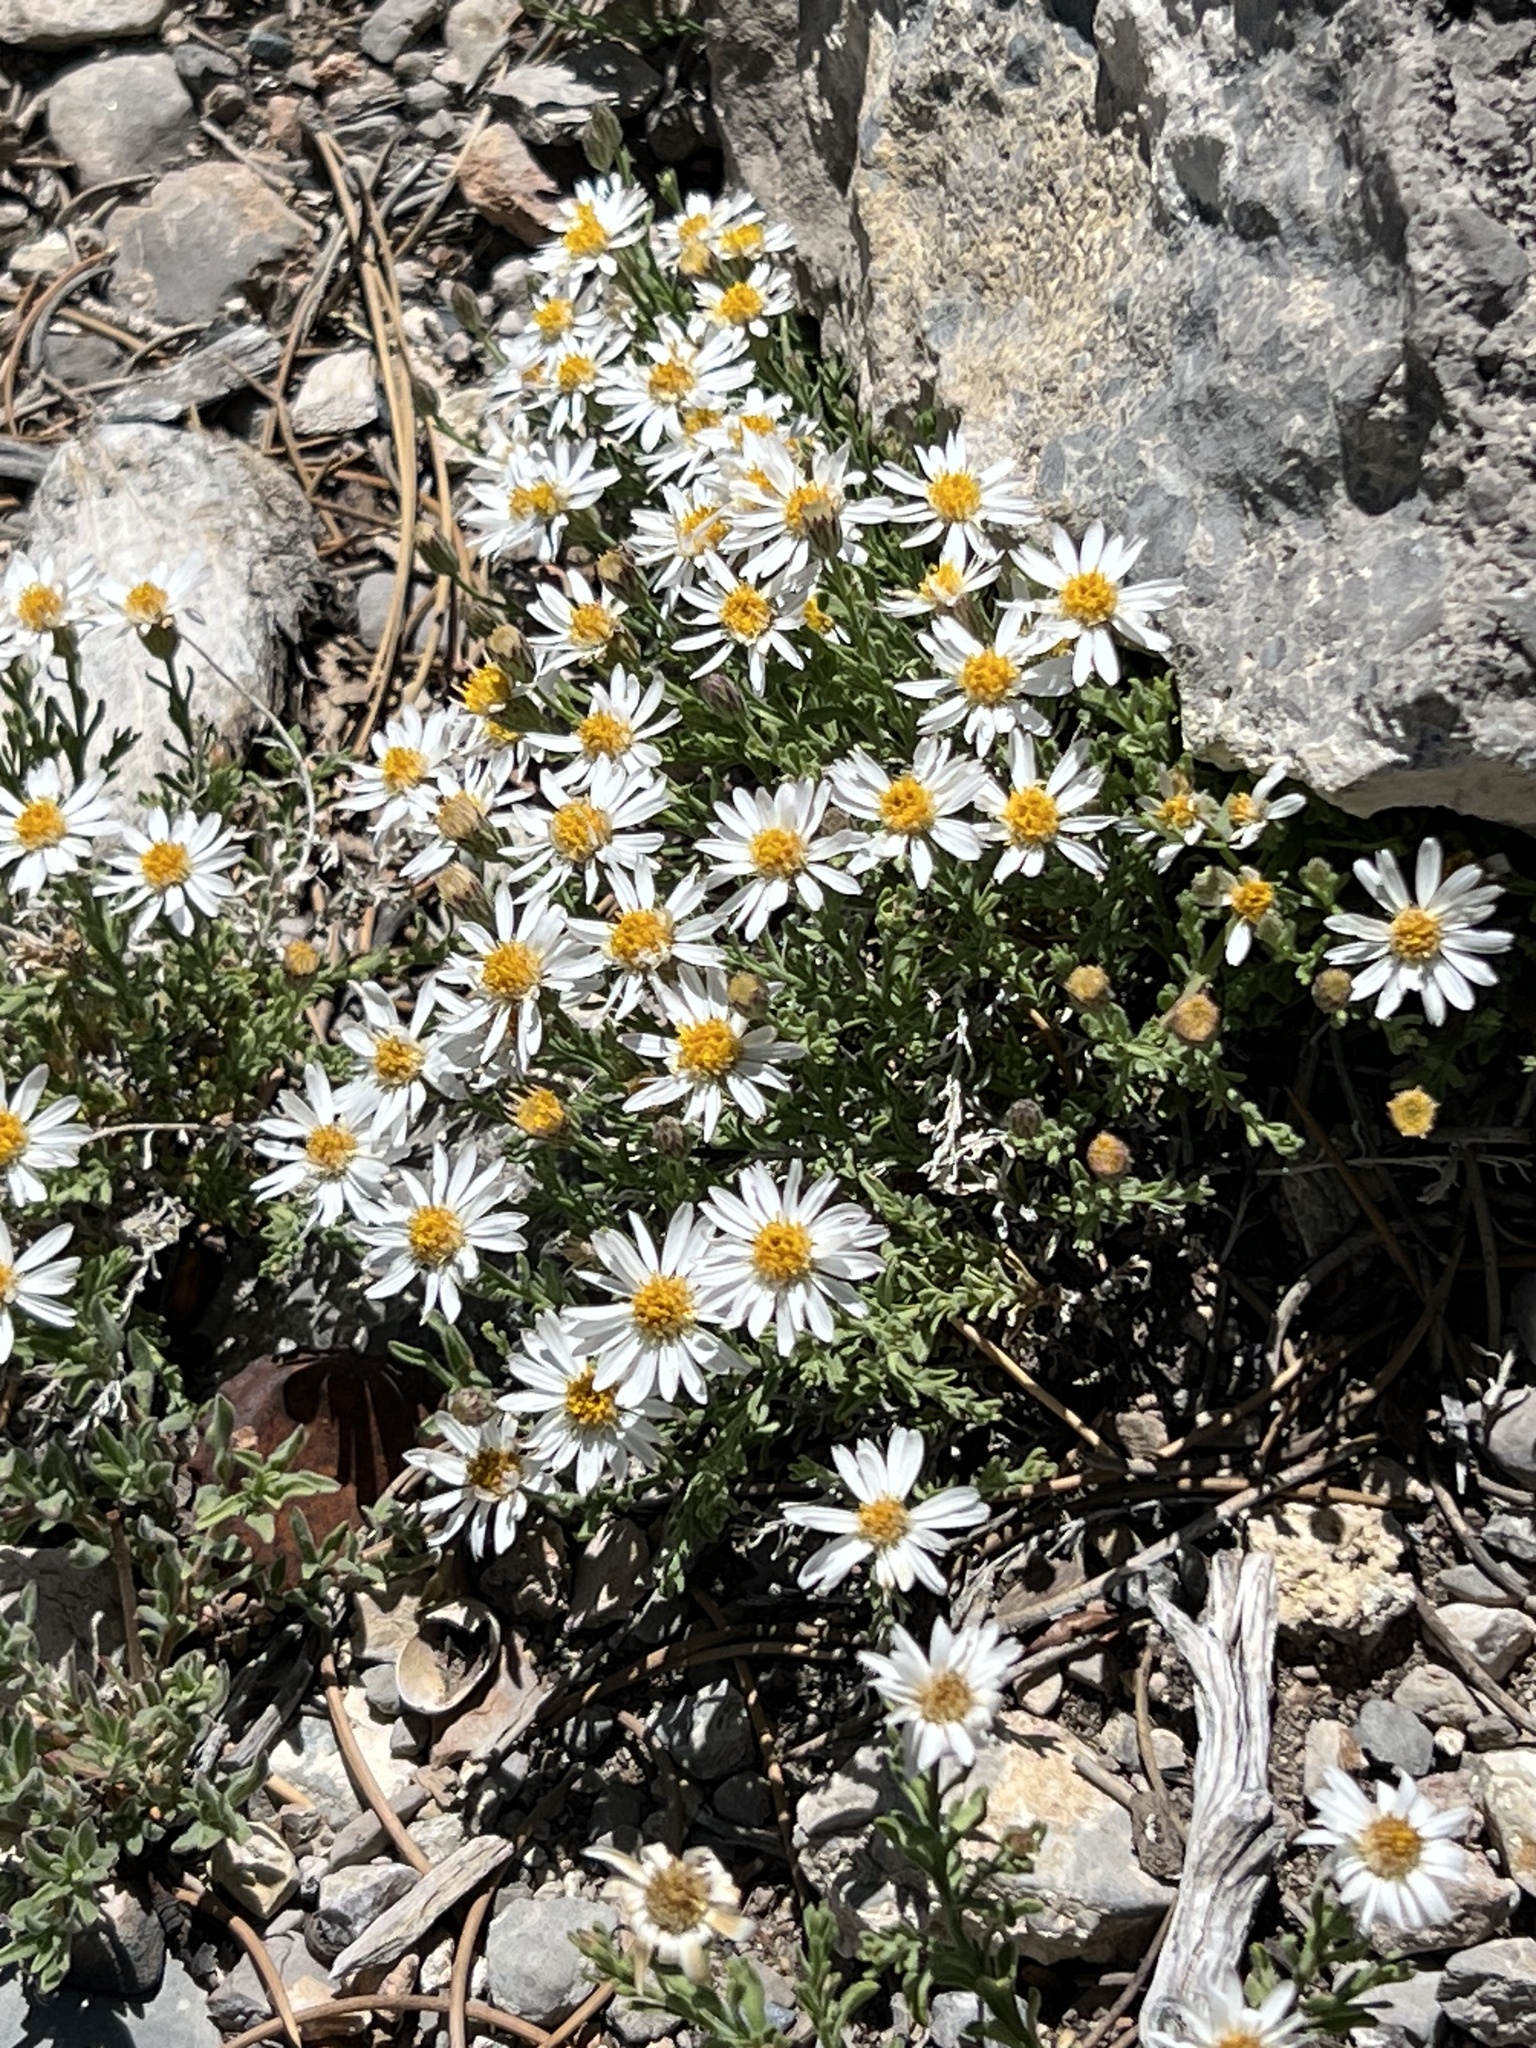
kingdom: Plantae
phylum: Tracheophyta
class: Magnoliopsida
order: Asterales
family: Asteraceae
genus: Chaetopappa
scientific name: Chaetopappa ericoides
